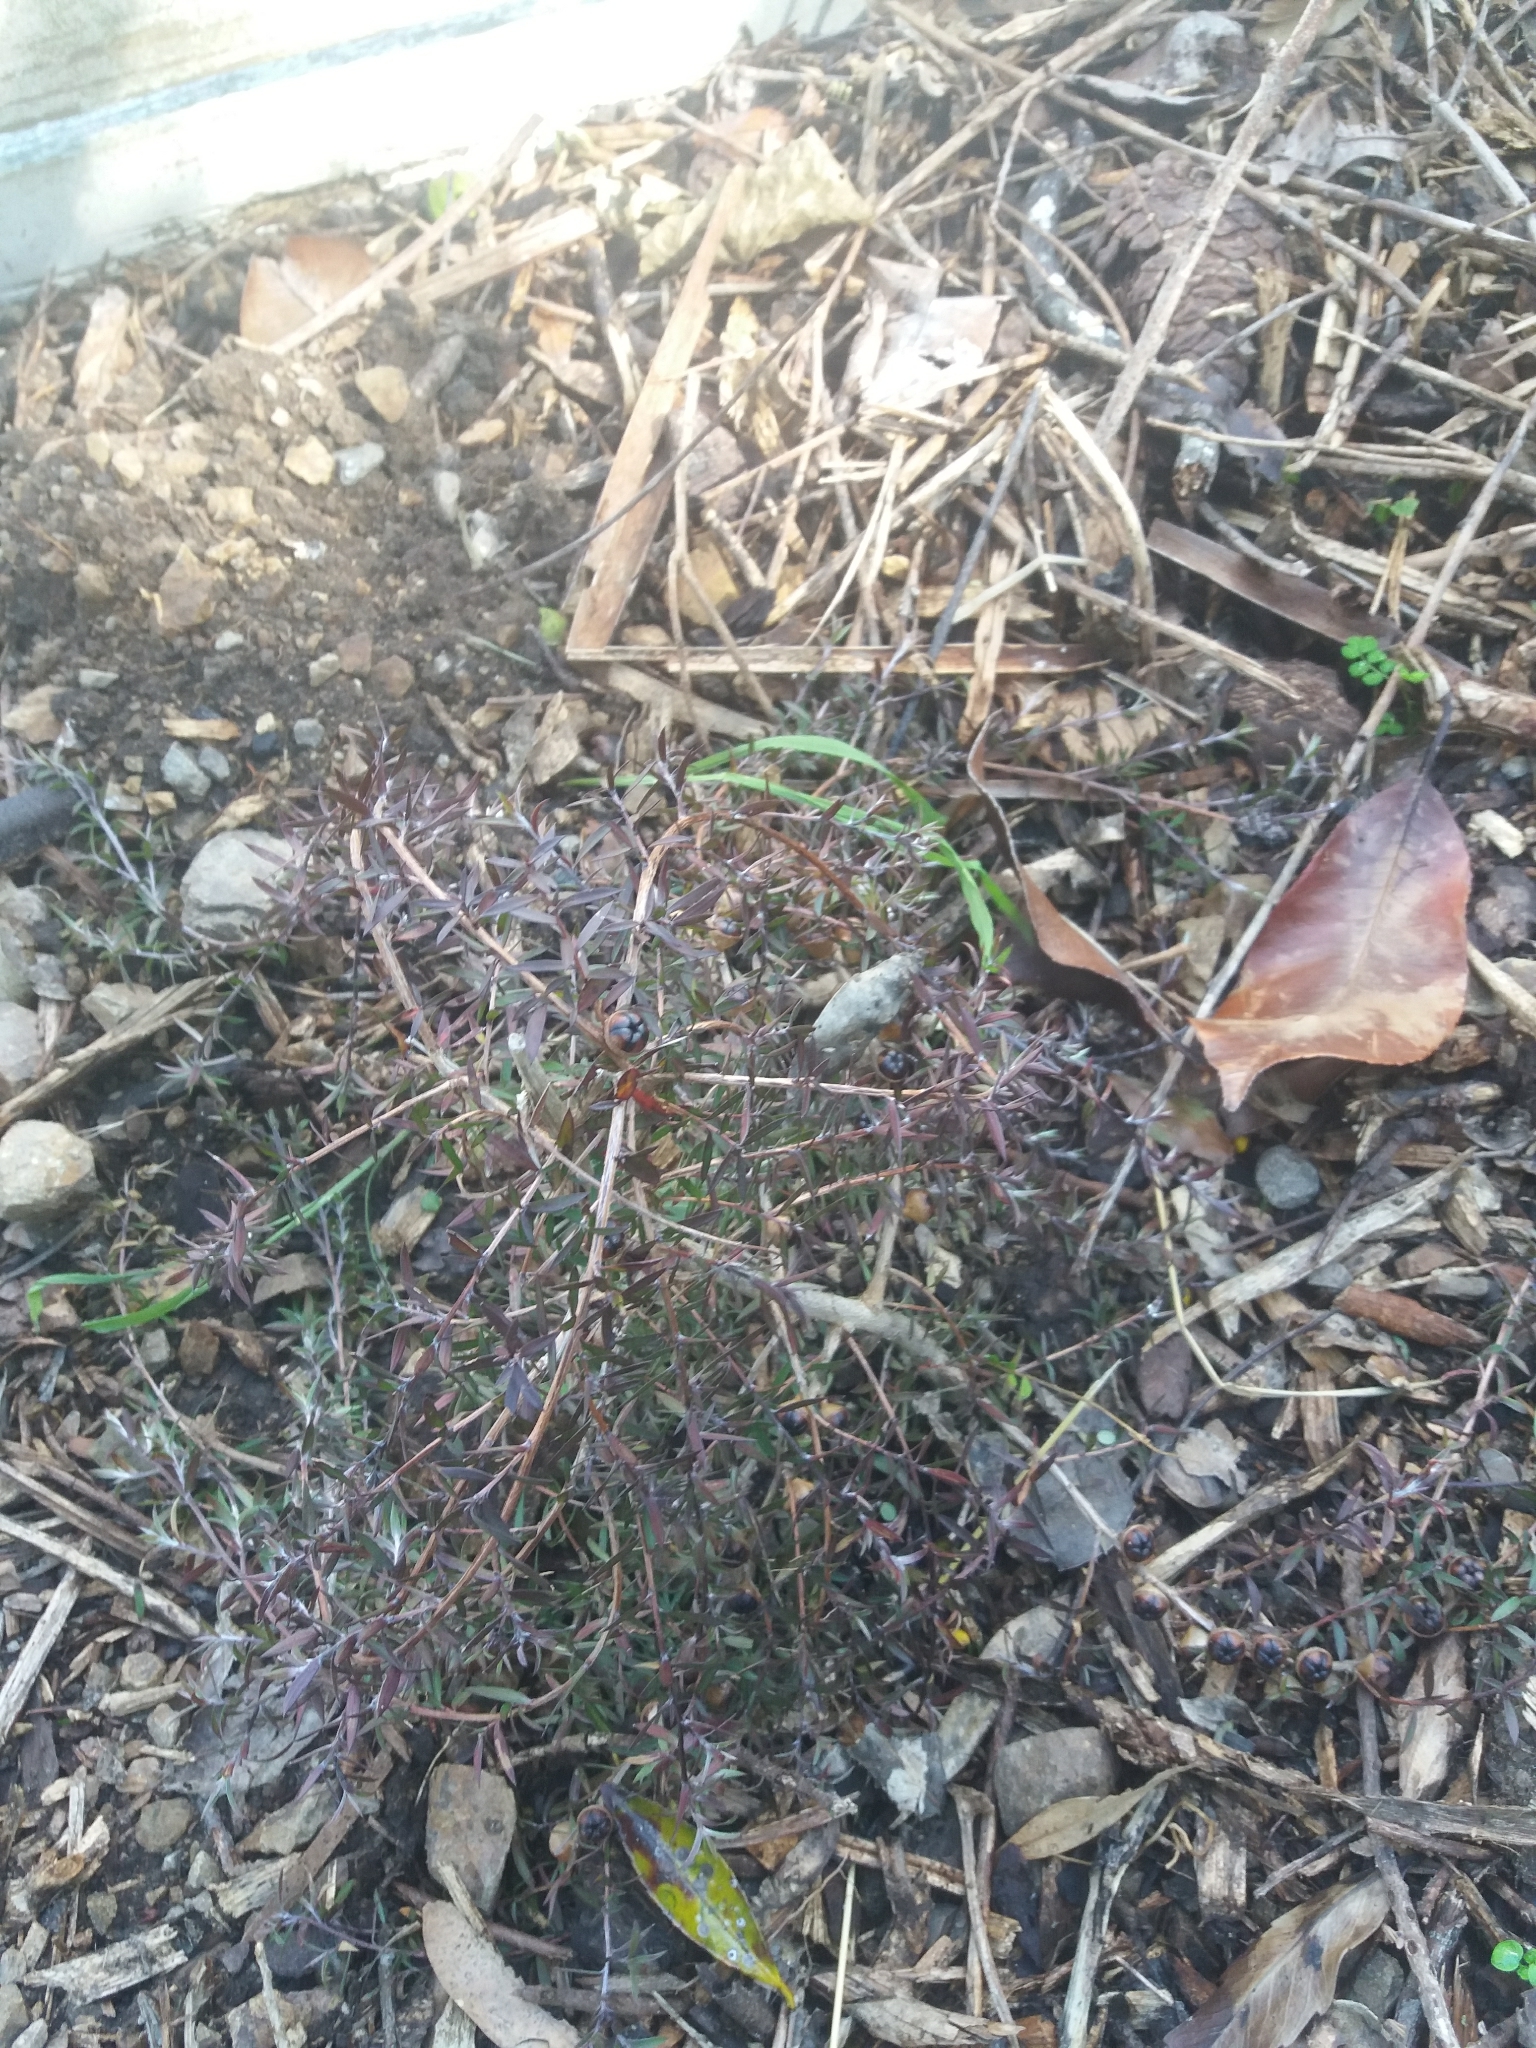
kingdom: Plantae
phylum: Tracheophyta
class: Magnoliopsida
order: Myrtales
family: Myrtaceae
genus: Leptospermum
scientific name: Leptospermum scoparium
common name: Broom tea-tree
